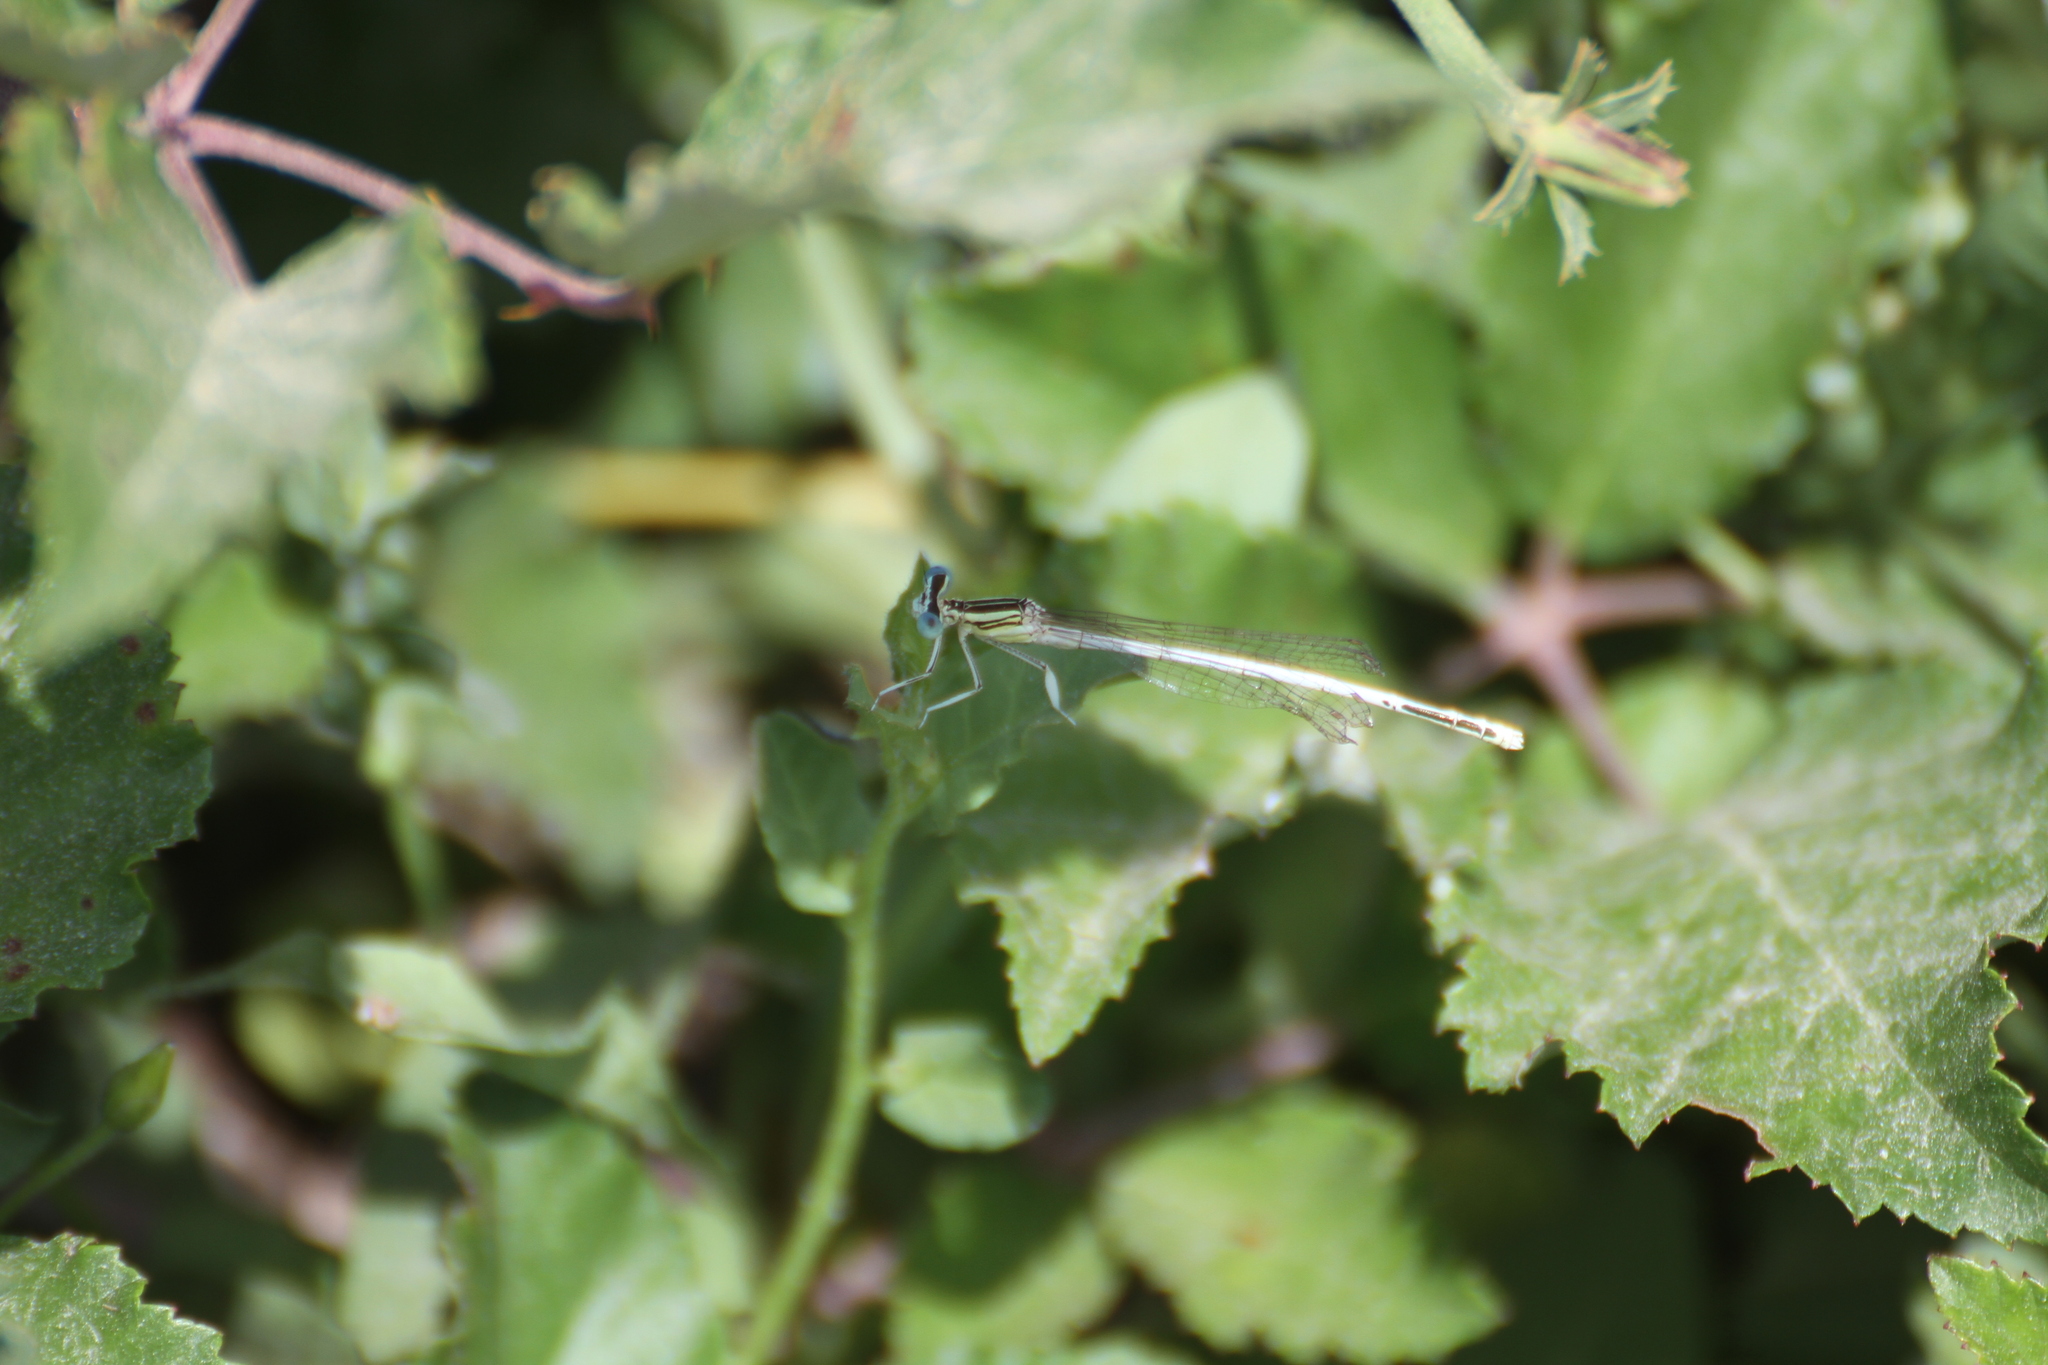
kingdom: Animalia
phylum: Arthropoda
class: Insecta
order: Odonata
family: Platycnemididae
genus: Platycnemis
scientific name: Platycnemis latipes
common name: White featherleg
